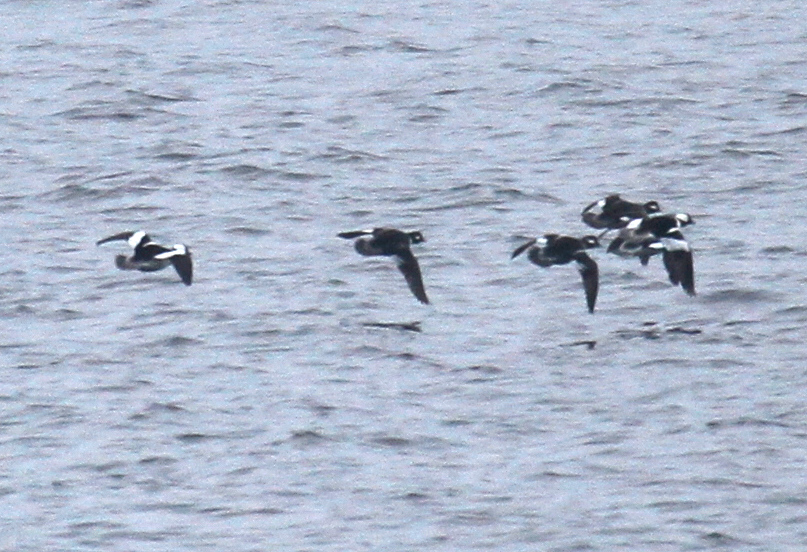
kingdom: Animalia
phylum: Chordata
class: Aves
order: Anseriformes
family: Anatidae
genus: Bucephala
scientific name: Bucephala albeola
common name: Bufflehead
